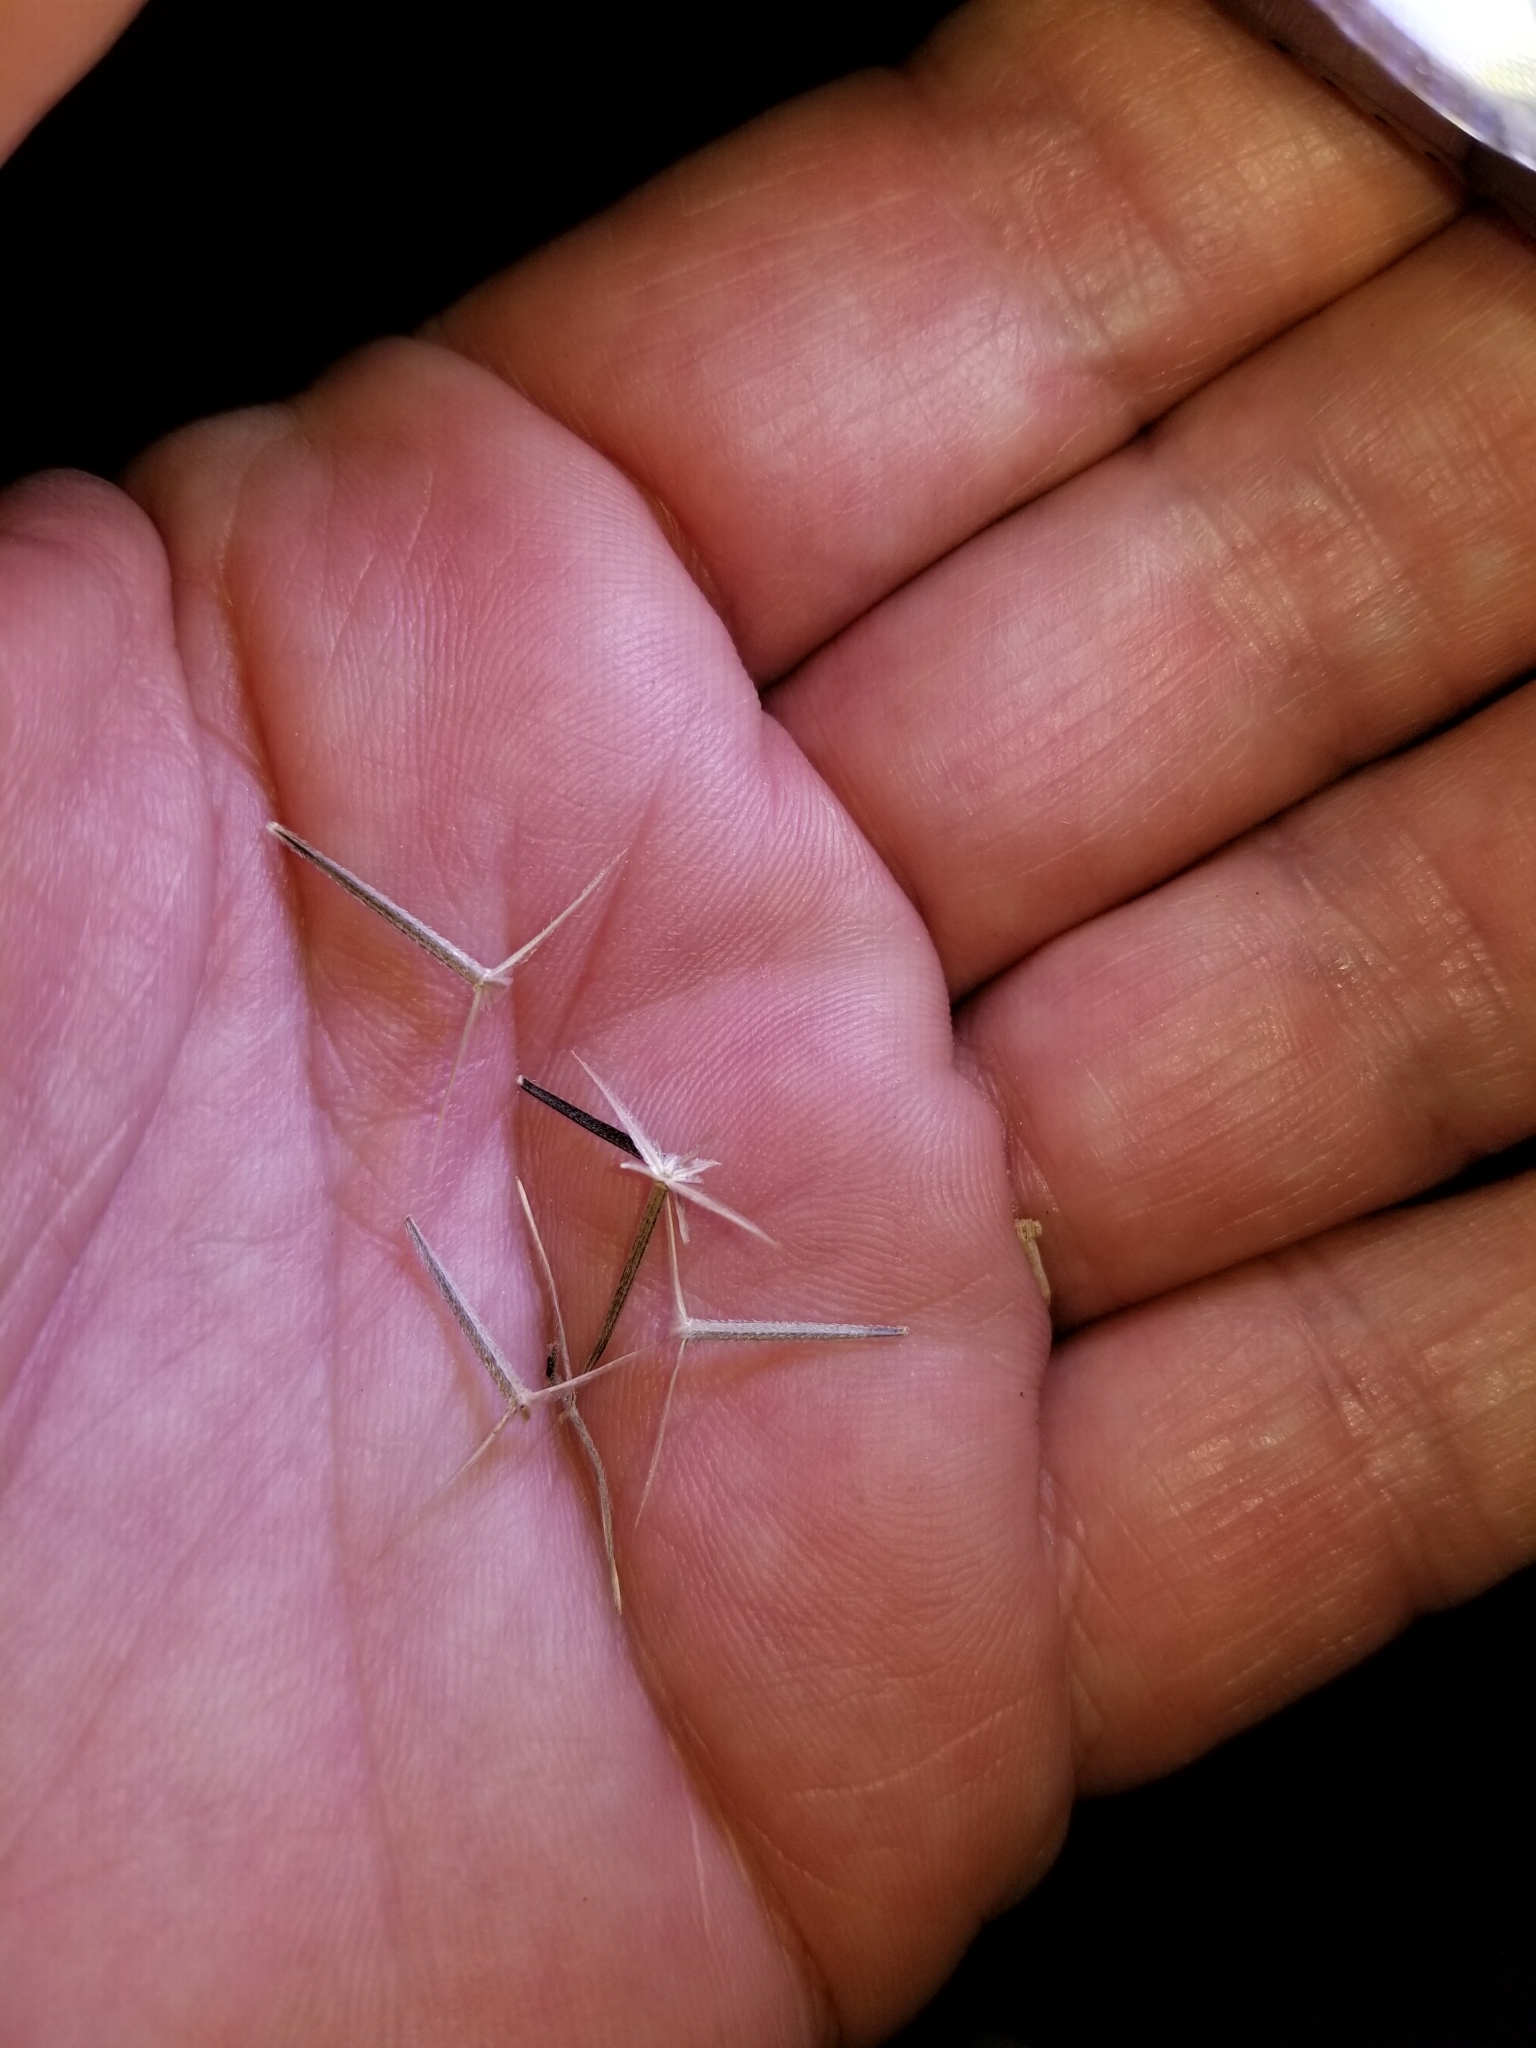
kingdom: Plantae
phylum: Tracheophyta
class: Magnoliopsida
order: Asterales
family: Asteraceae
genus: Palafoxia
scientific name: Palafoxia arida
